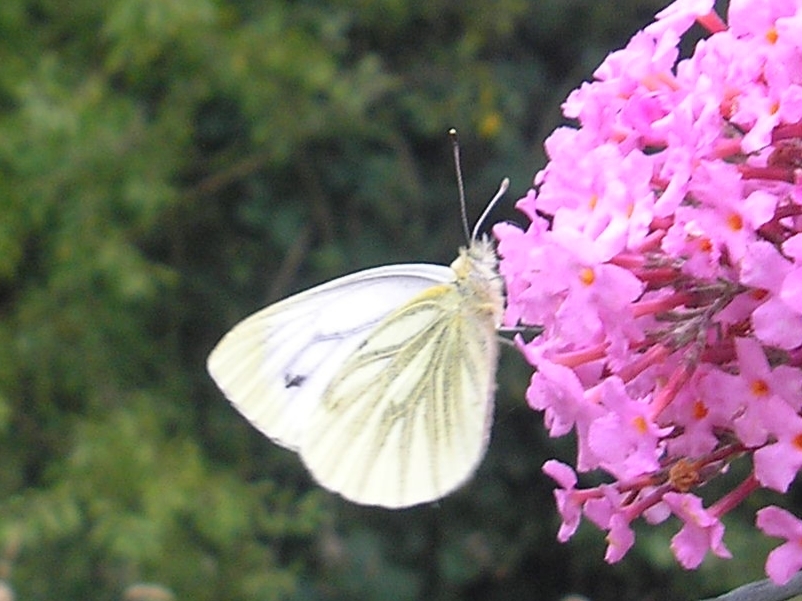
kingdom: Animalia
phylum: Arthropoda
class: Insecta
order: Lepidoptera
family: Pieridae
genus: Pieris
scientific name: Pieris napi
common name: Green-veined white
